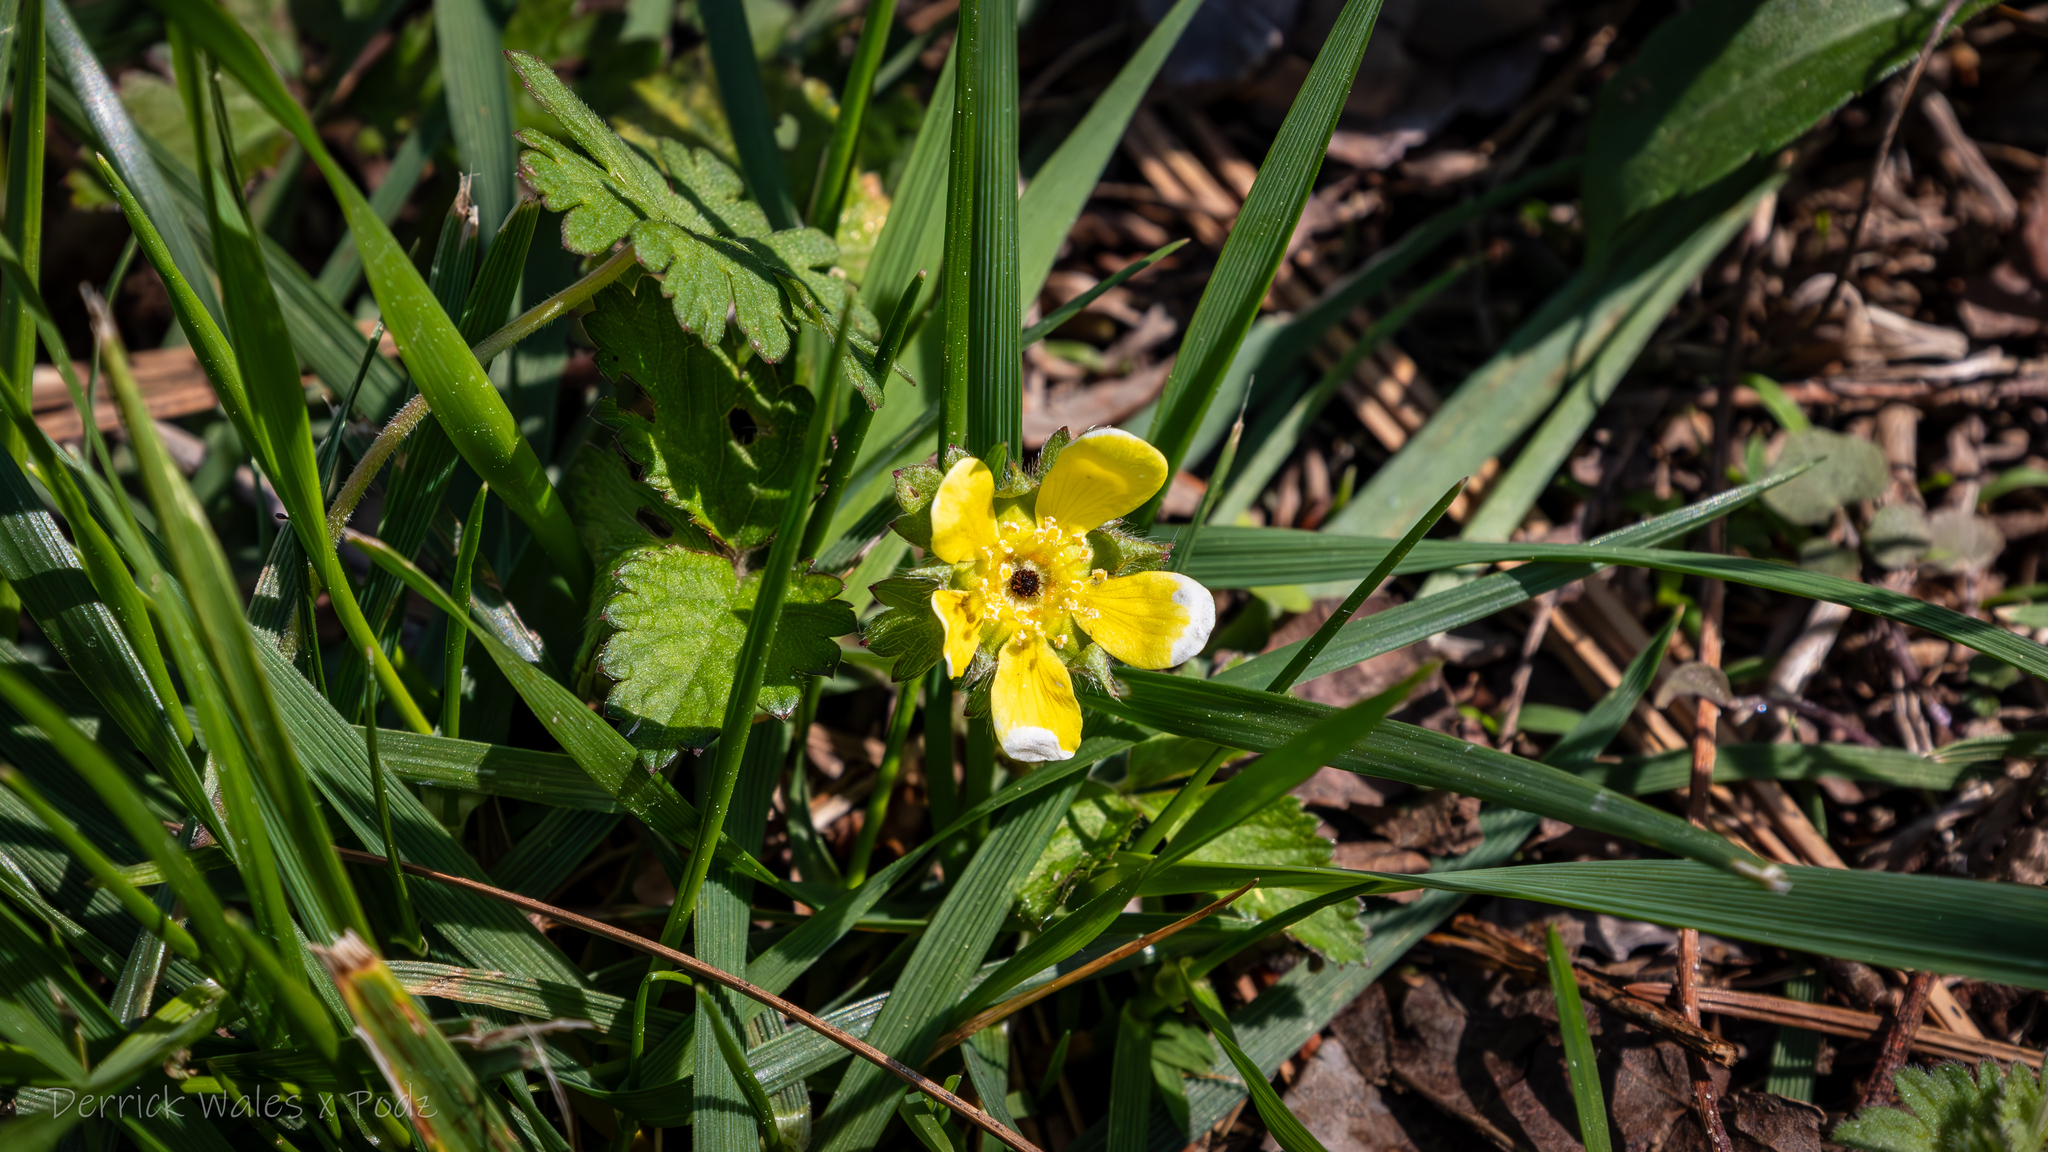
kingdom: Plantae
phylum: Tracheophyta
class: Magnoliopsida
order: Rosales
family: Rosaceae
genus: Potentilla
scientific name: Potentilla indica
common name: Yellow-flowered strawberry
